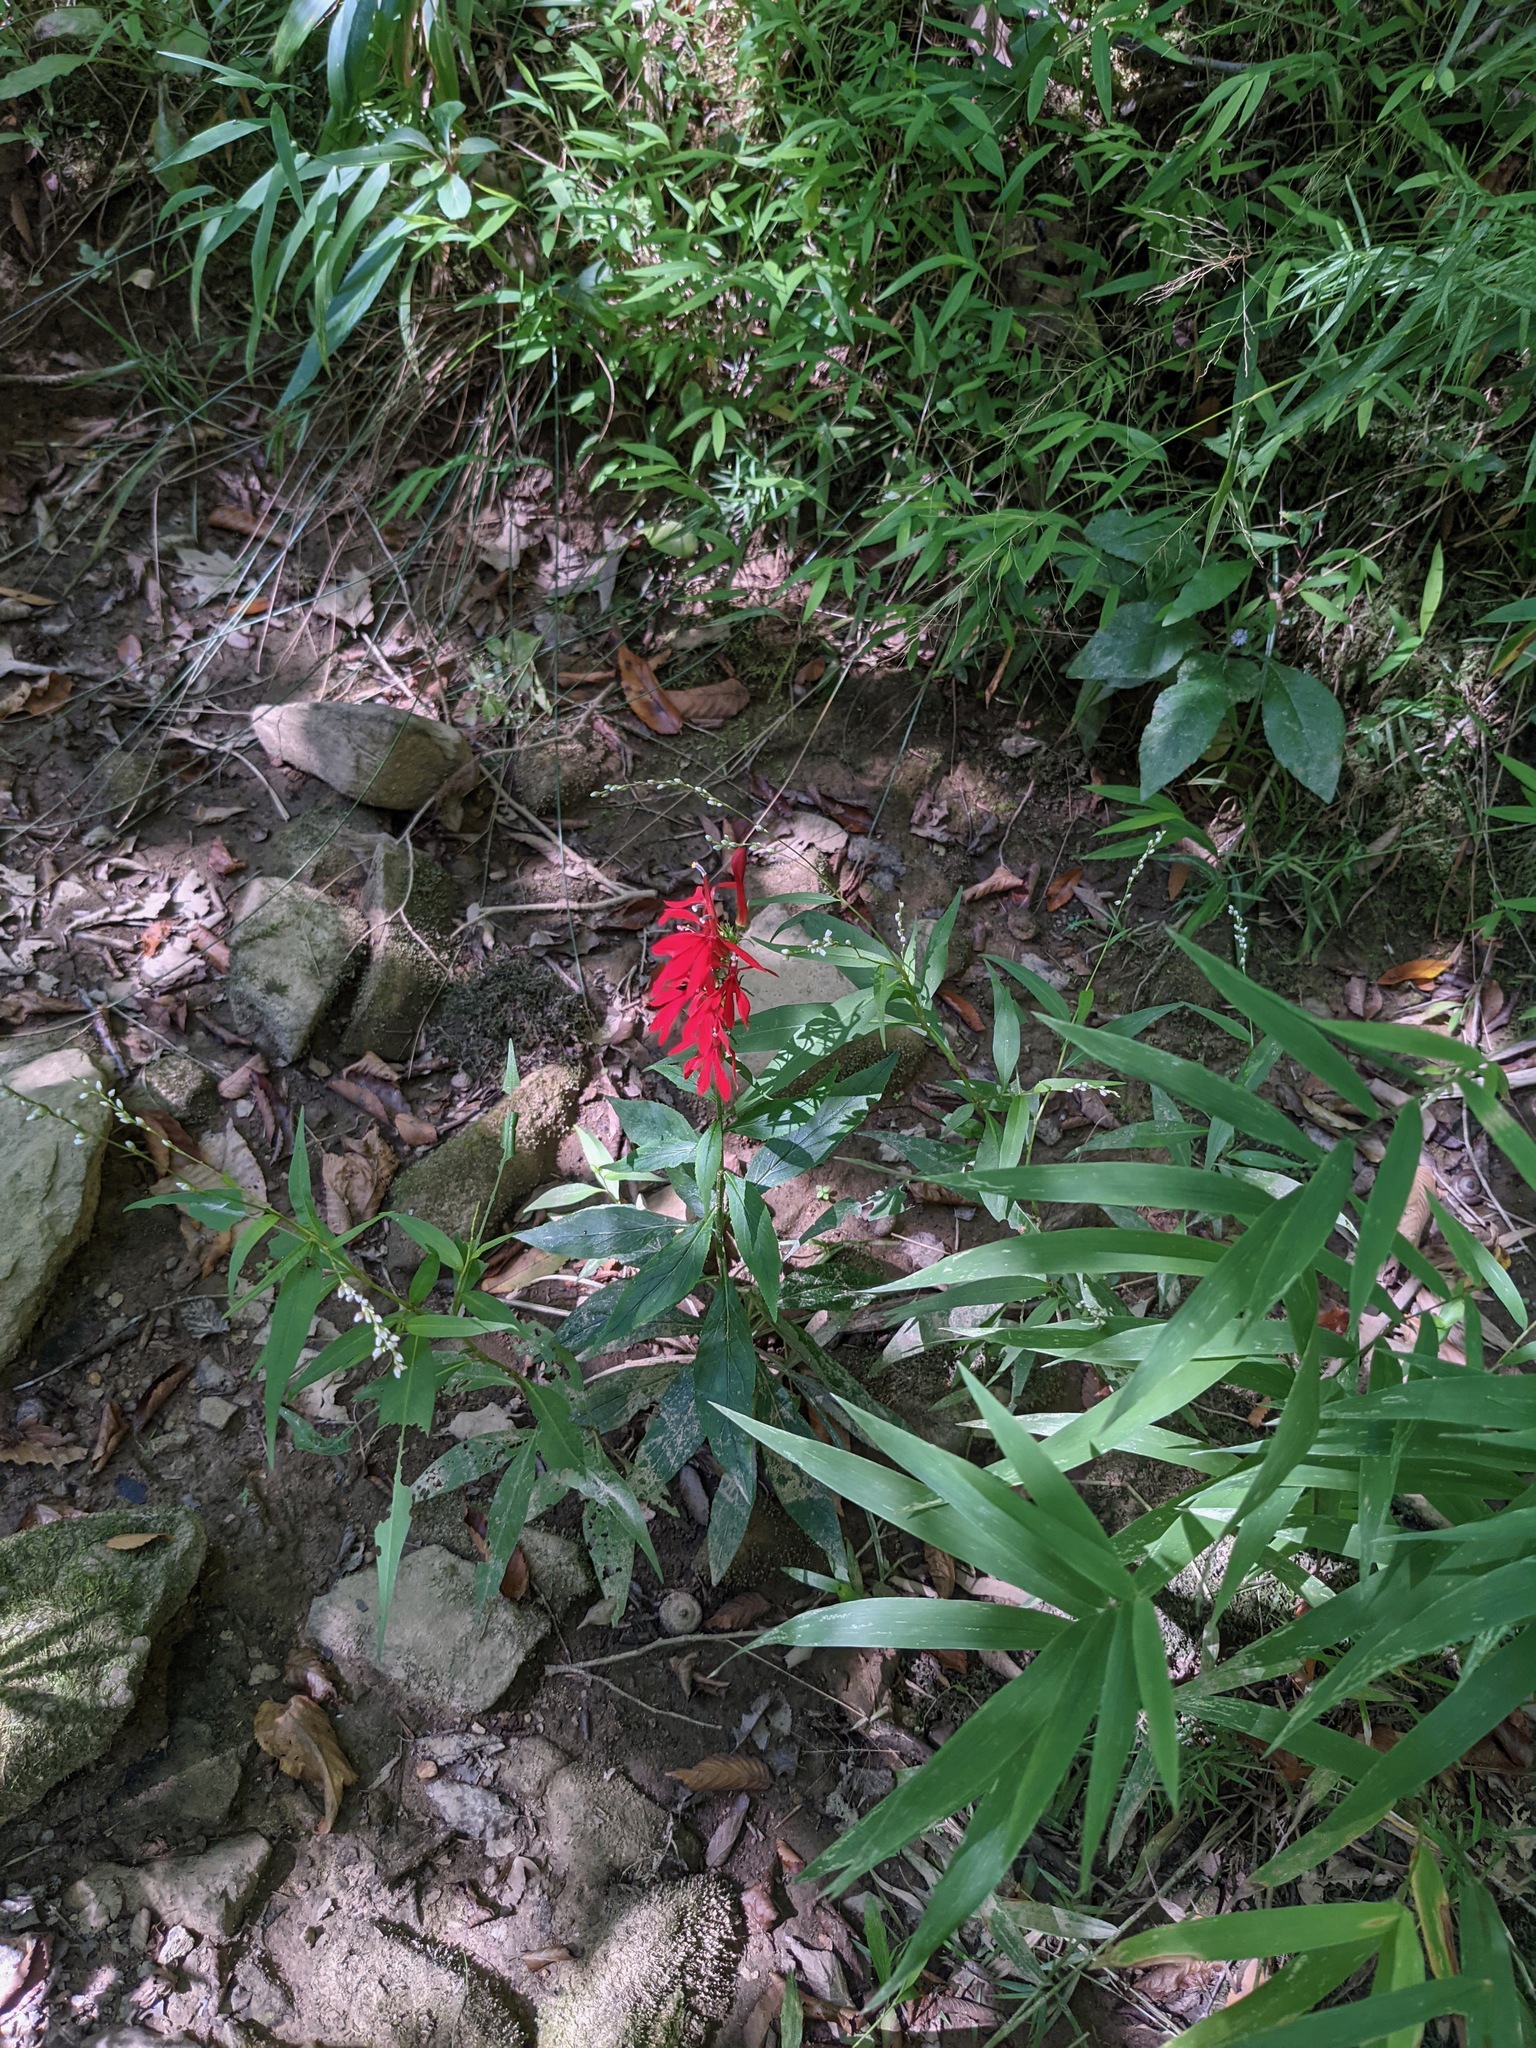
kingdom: Plantae
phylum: Tracheophyta
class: Magnoliopsida
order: Asterales
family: Campanulaceae
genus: Lobelia
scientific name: Lobelia cardinalis
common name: Cardinal flower
